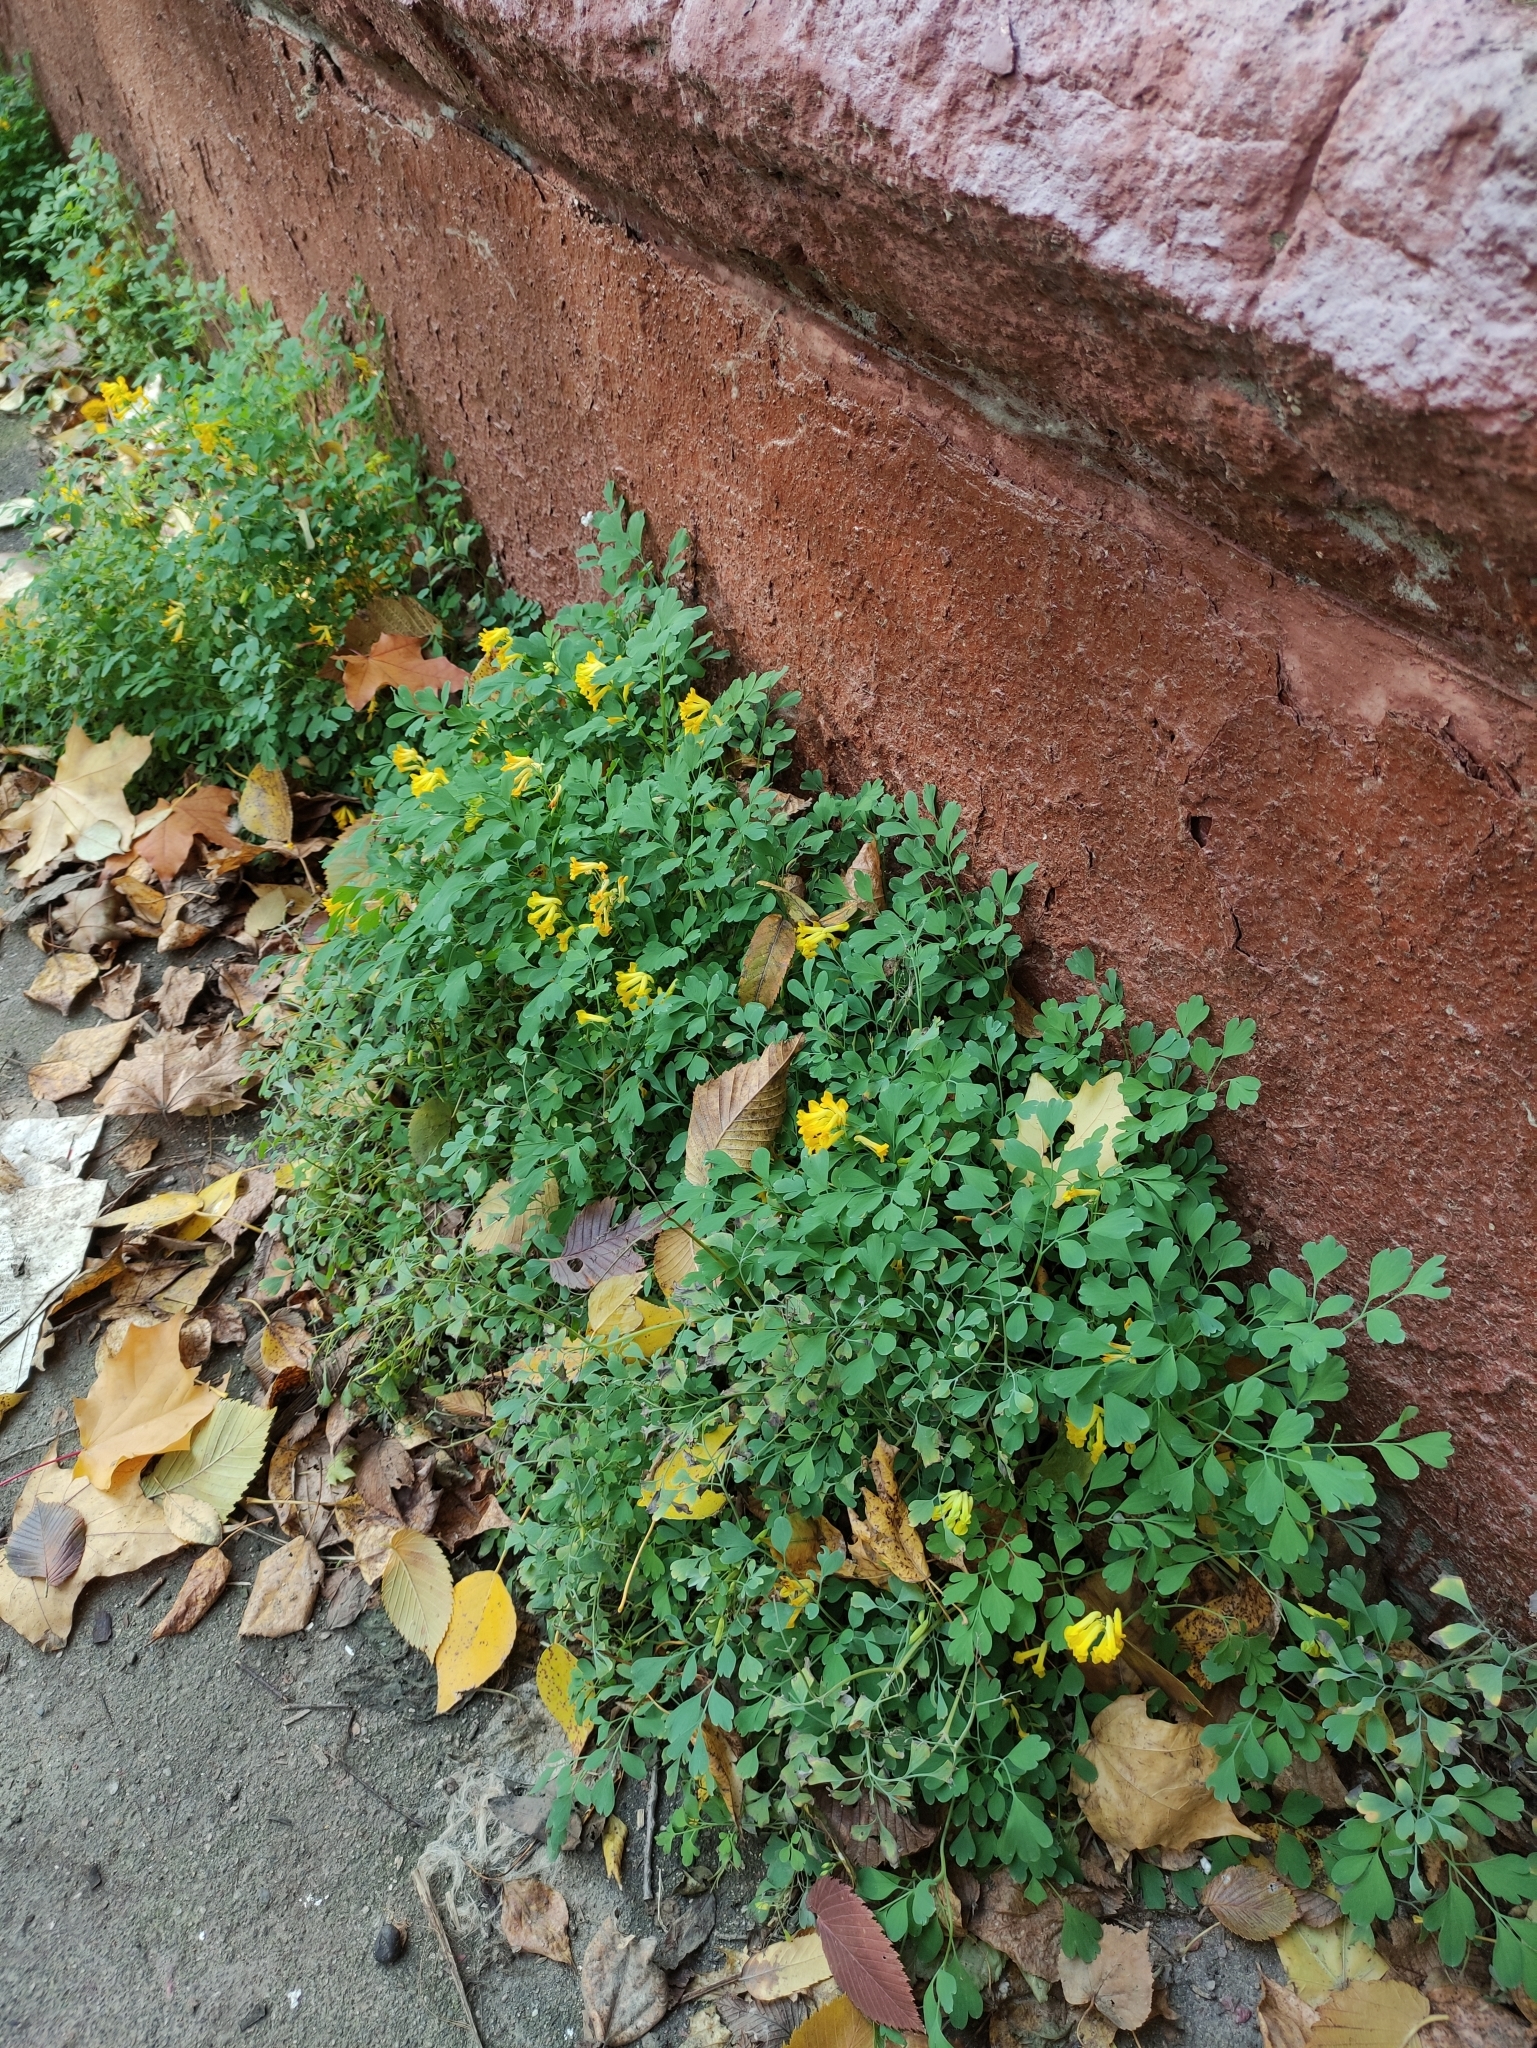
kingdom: Plantae
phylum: Tracheophyta
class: Magnoliopsida
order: Ranunculales
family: Papaveraceae
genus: Pseudofumaria
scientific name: Pseudofumaria lutea
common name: Yellow corydalis
